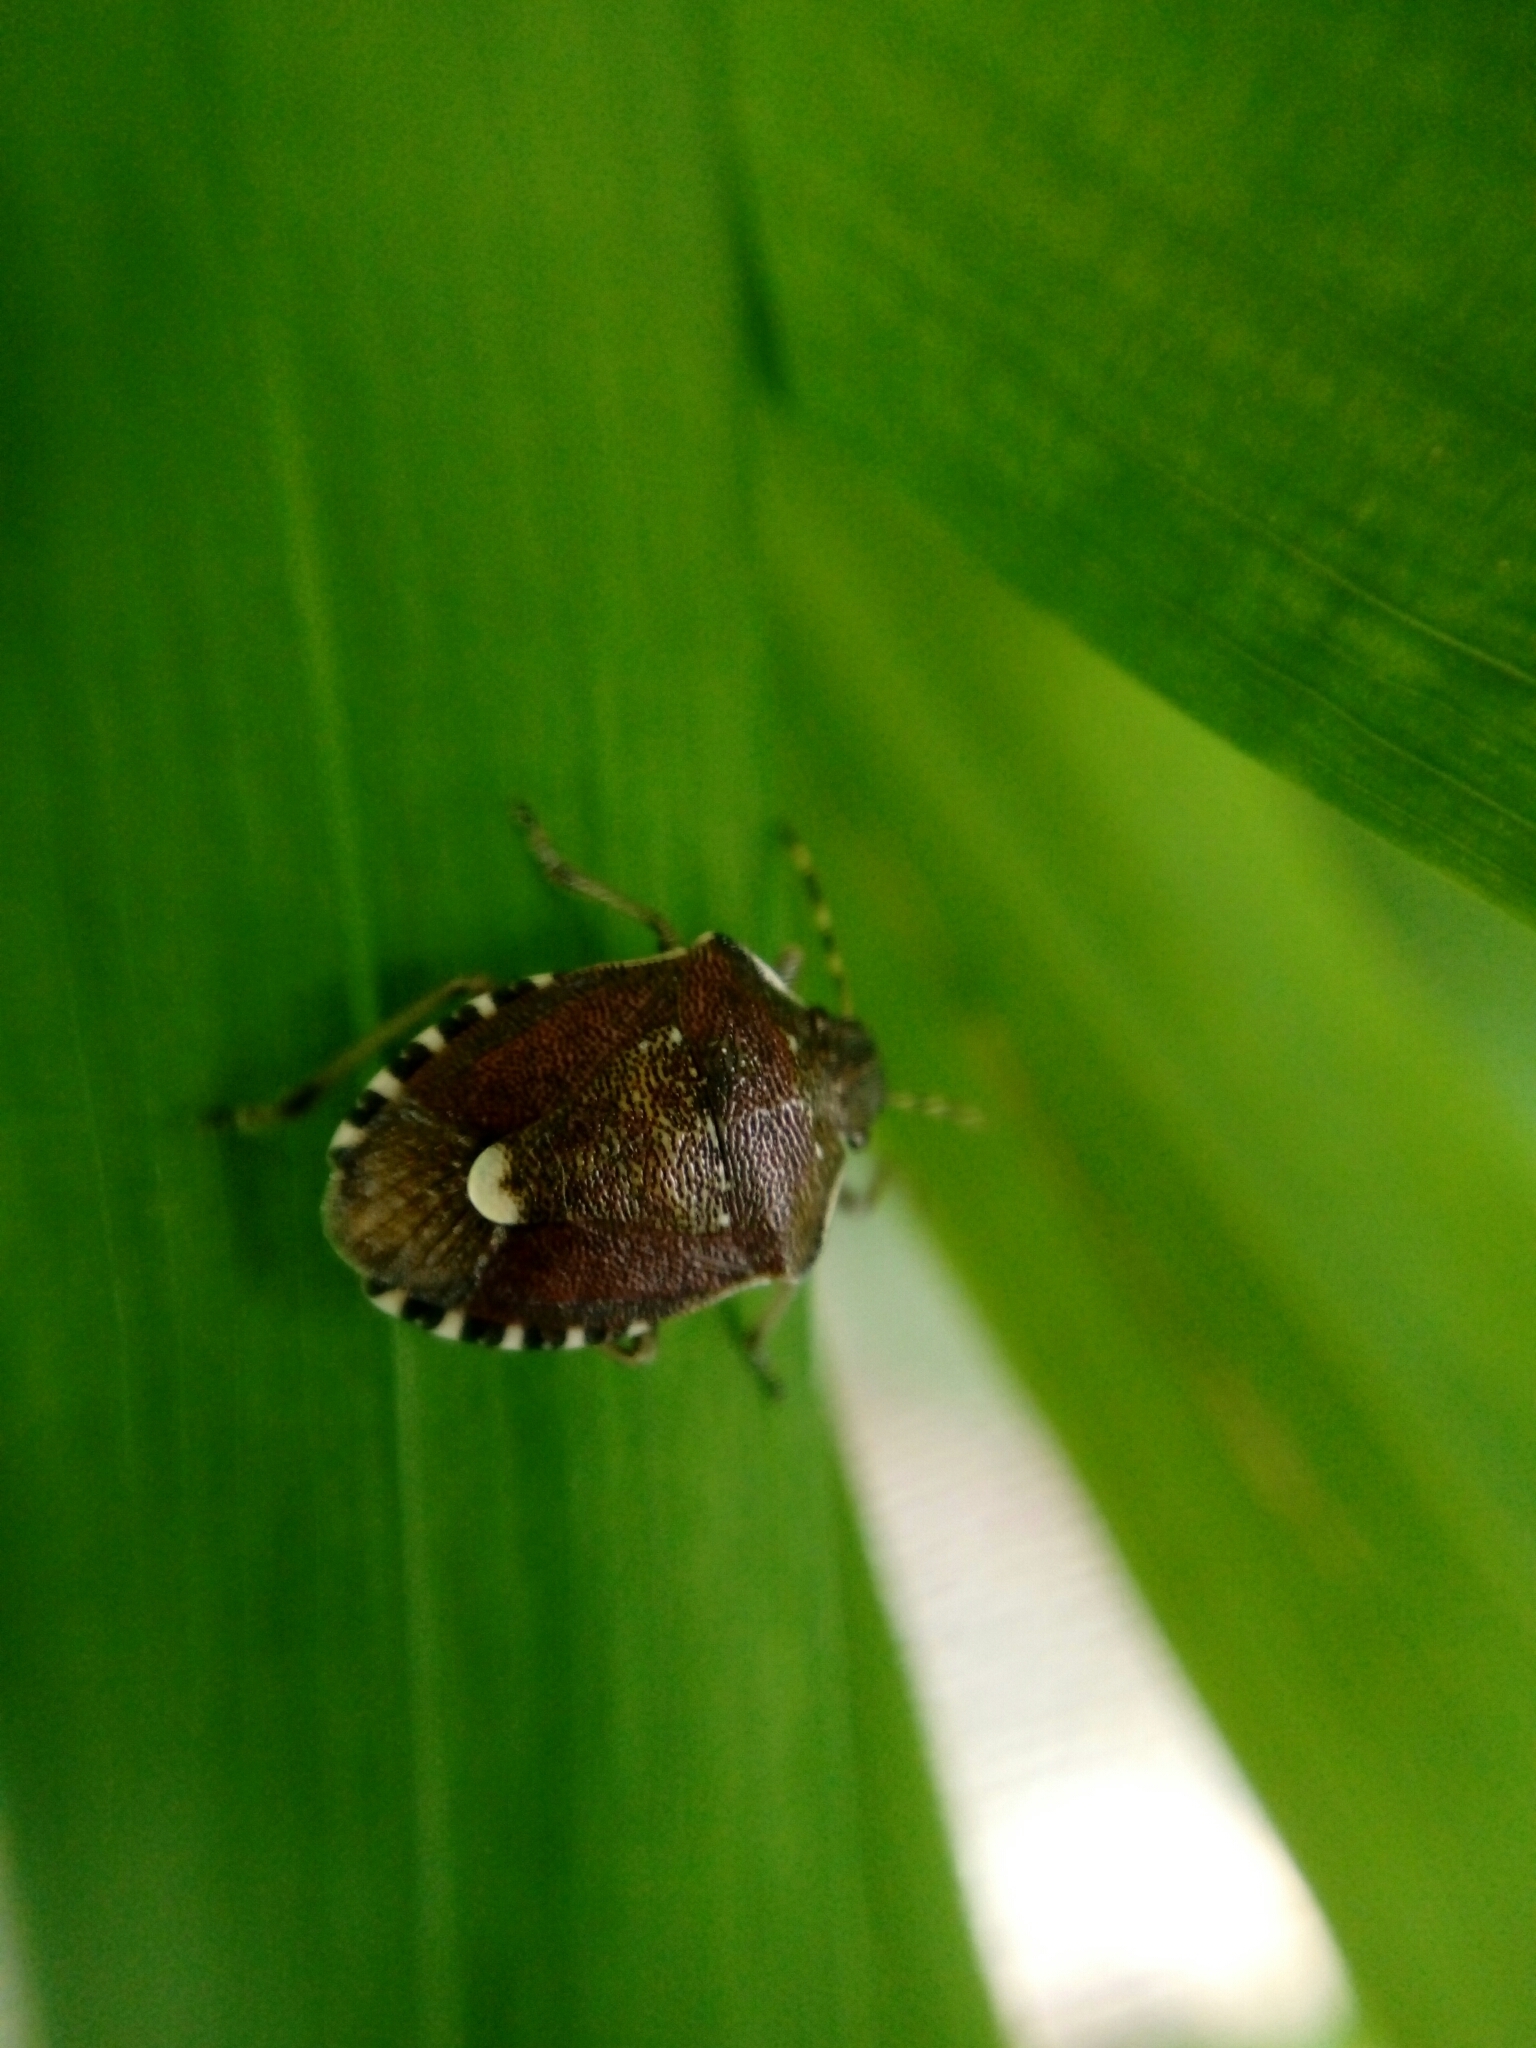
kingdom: Animalia
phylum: Arthropoda
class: Insecta
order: Hemiptera
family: Pentatomidae
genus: Holcostethus
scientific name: Holcostethus sphacelatus
